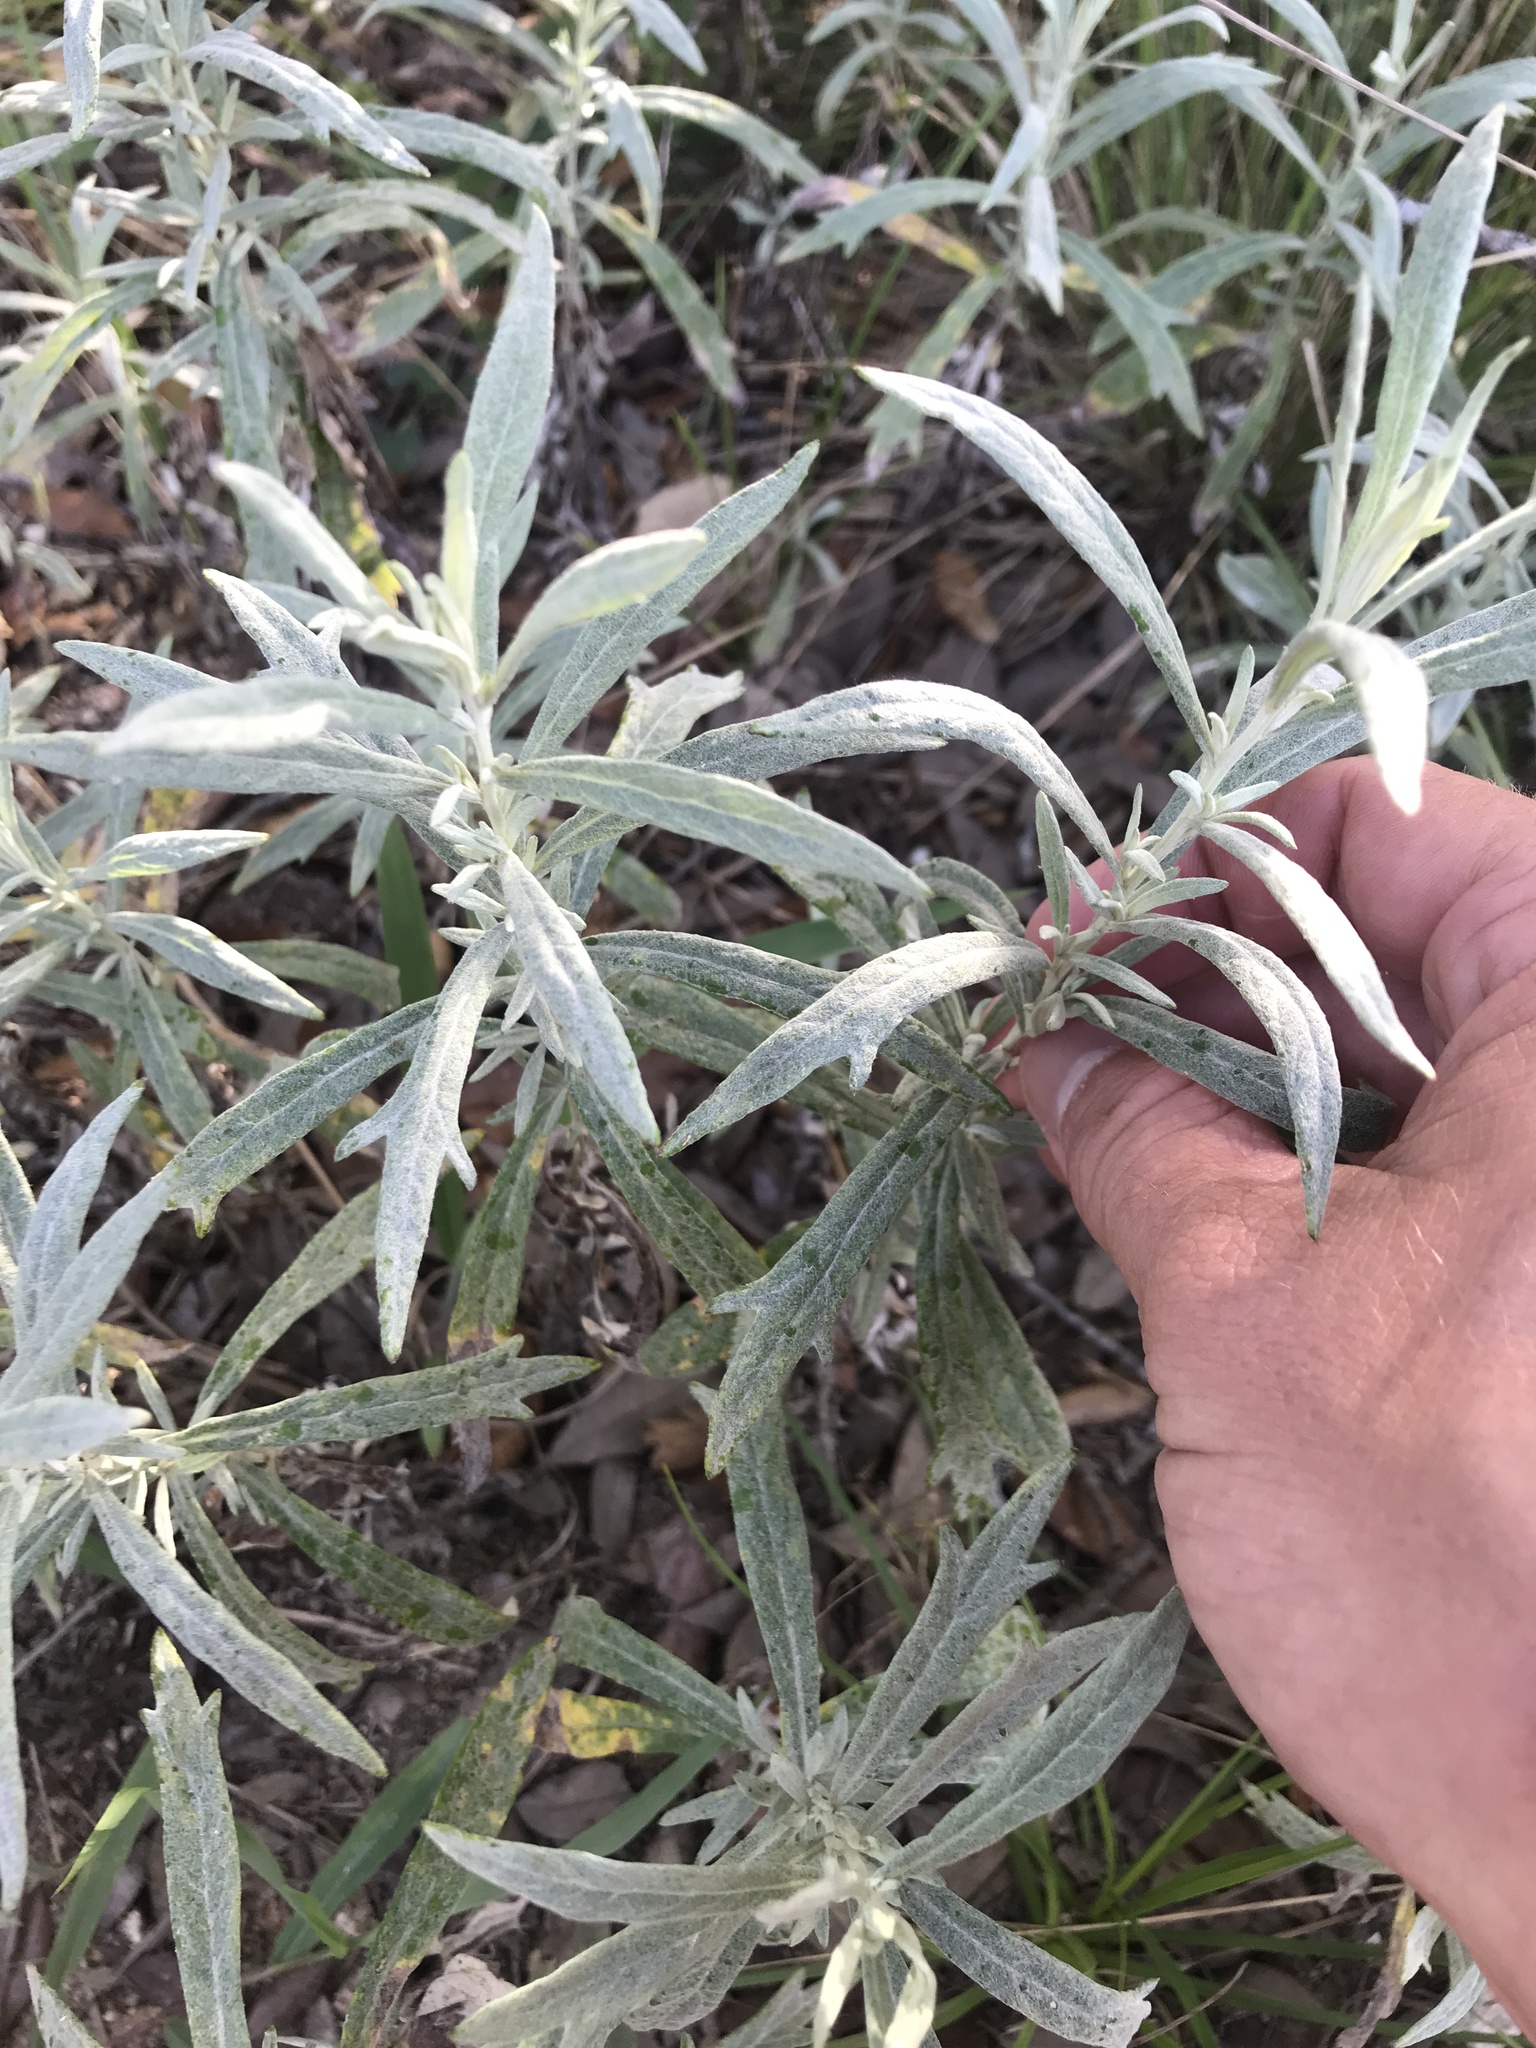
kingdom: Plantae
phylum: Tracheophyta
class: Magnoliopsida
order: Asterales
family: Asteraceae
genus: Artemisia
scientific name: Artemisia ludoviciana
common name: Western mugwort
